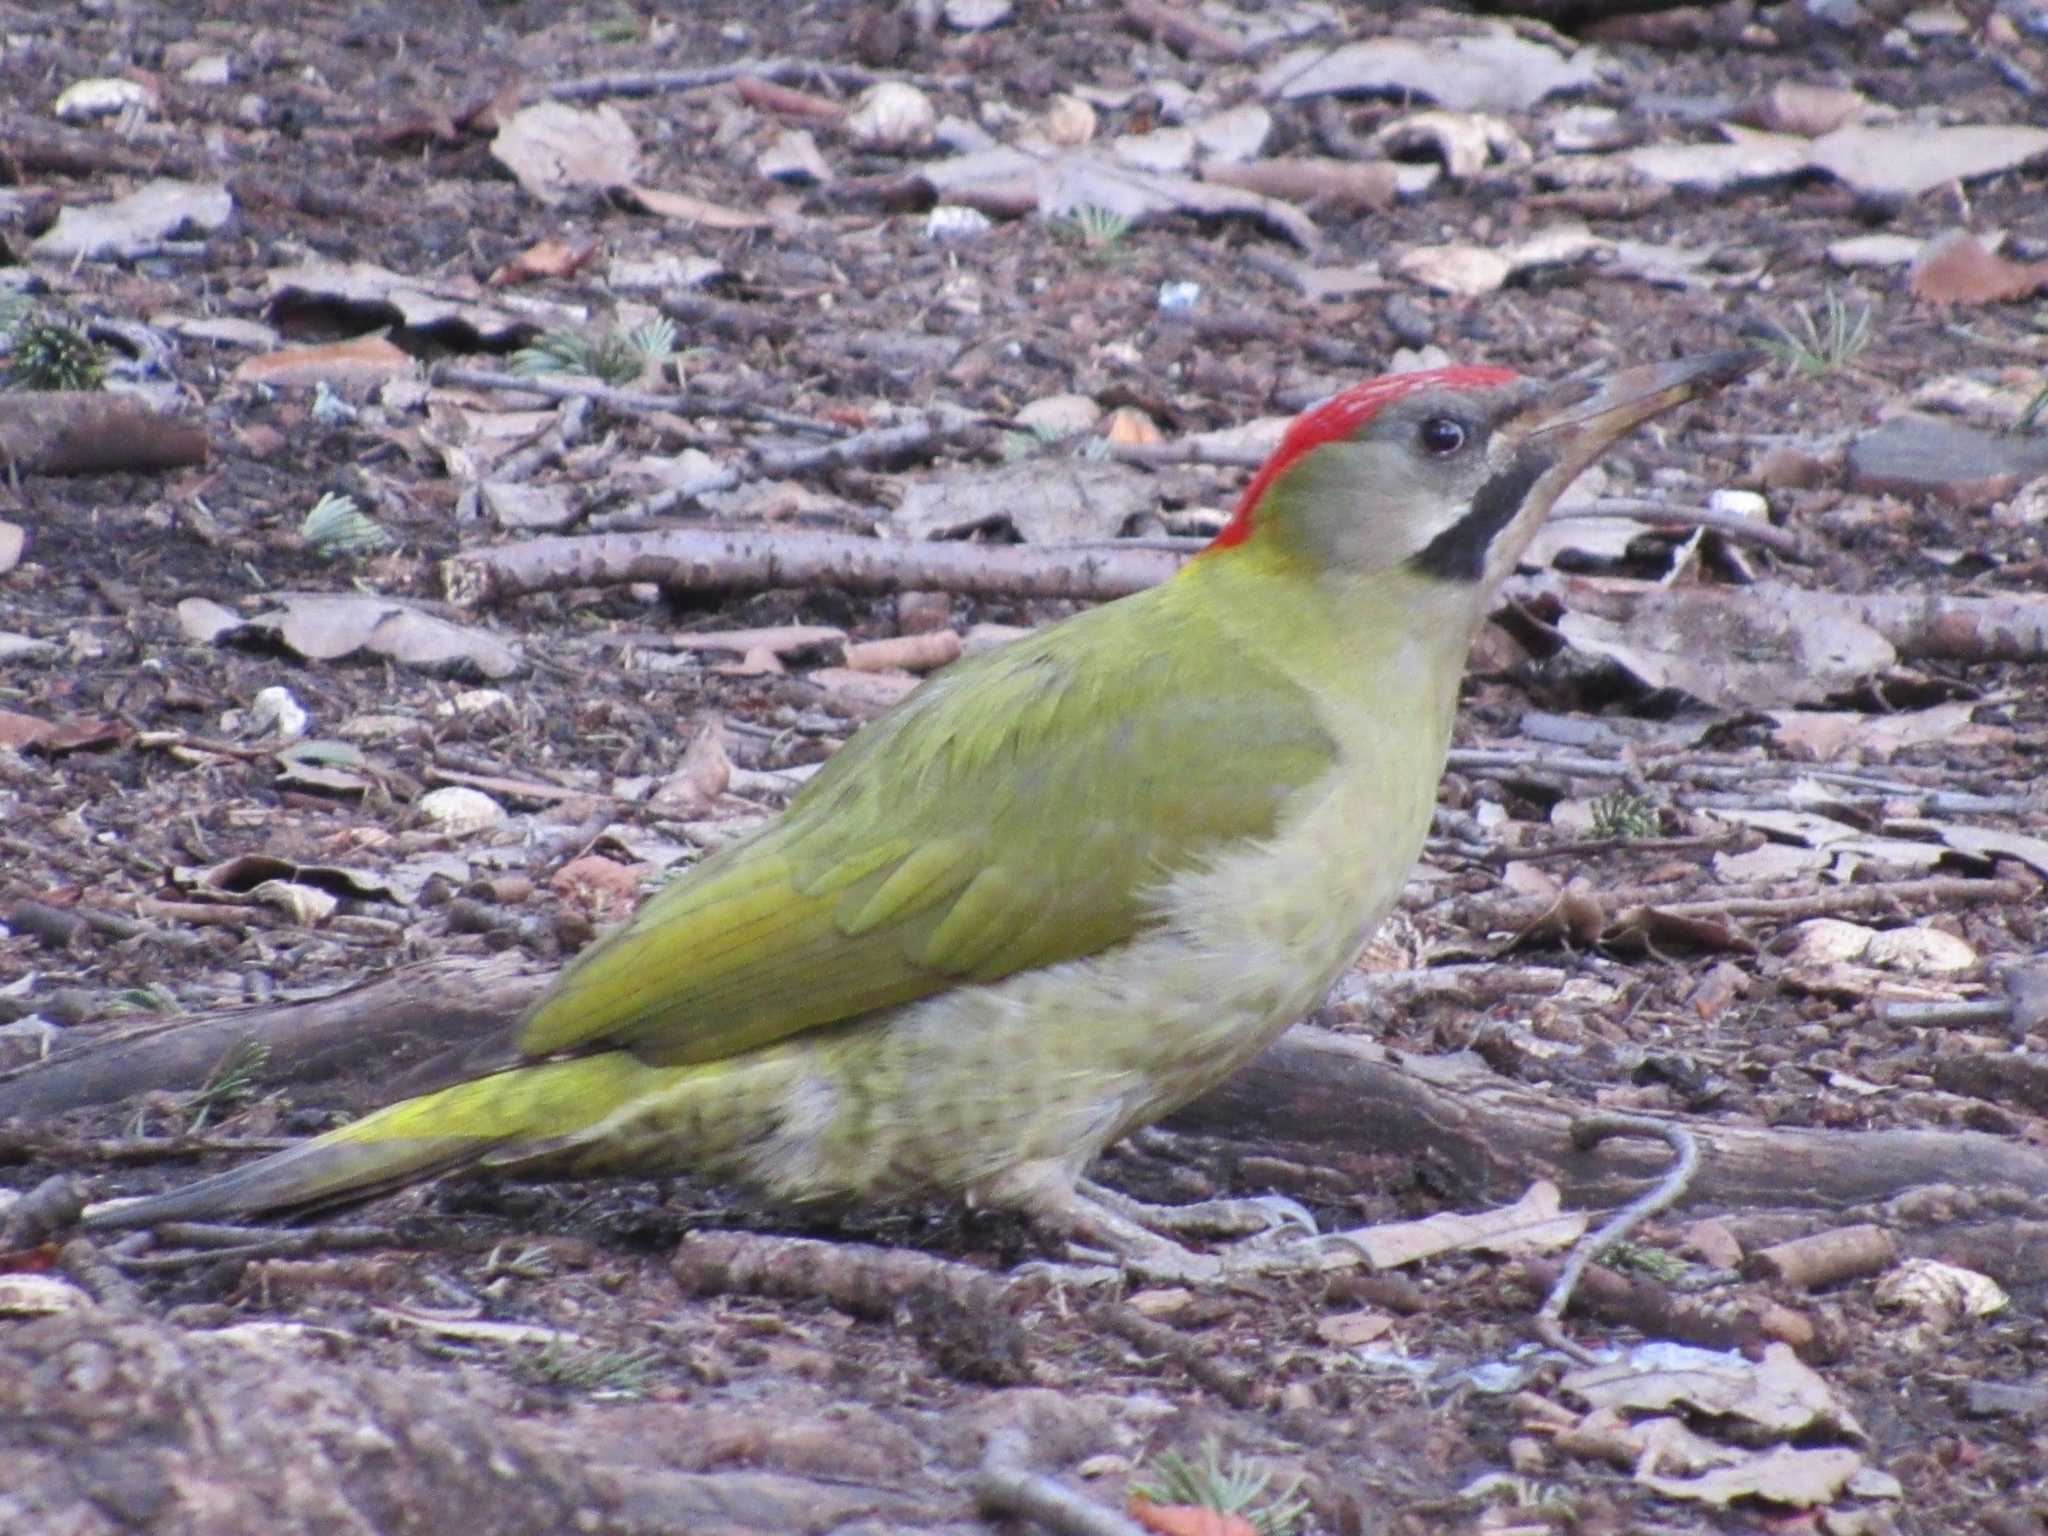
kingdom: Animalia
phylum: Chordata
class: Aves
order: Piciformes
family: Picidae
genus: Picus
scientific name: Picus vaillantii
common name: Levaillant's woodpecker
